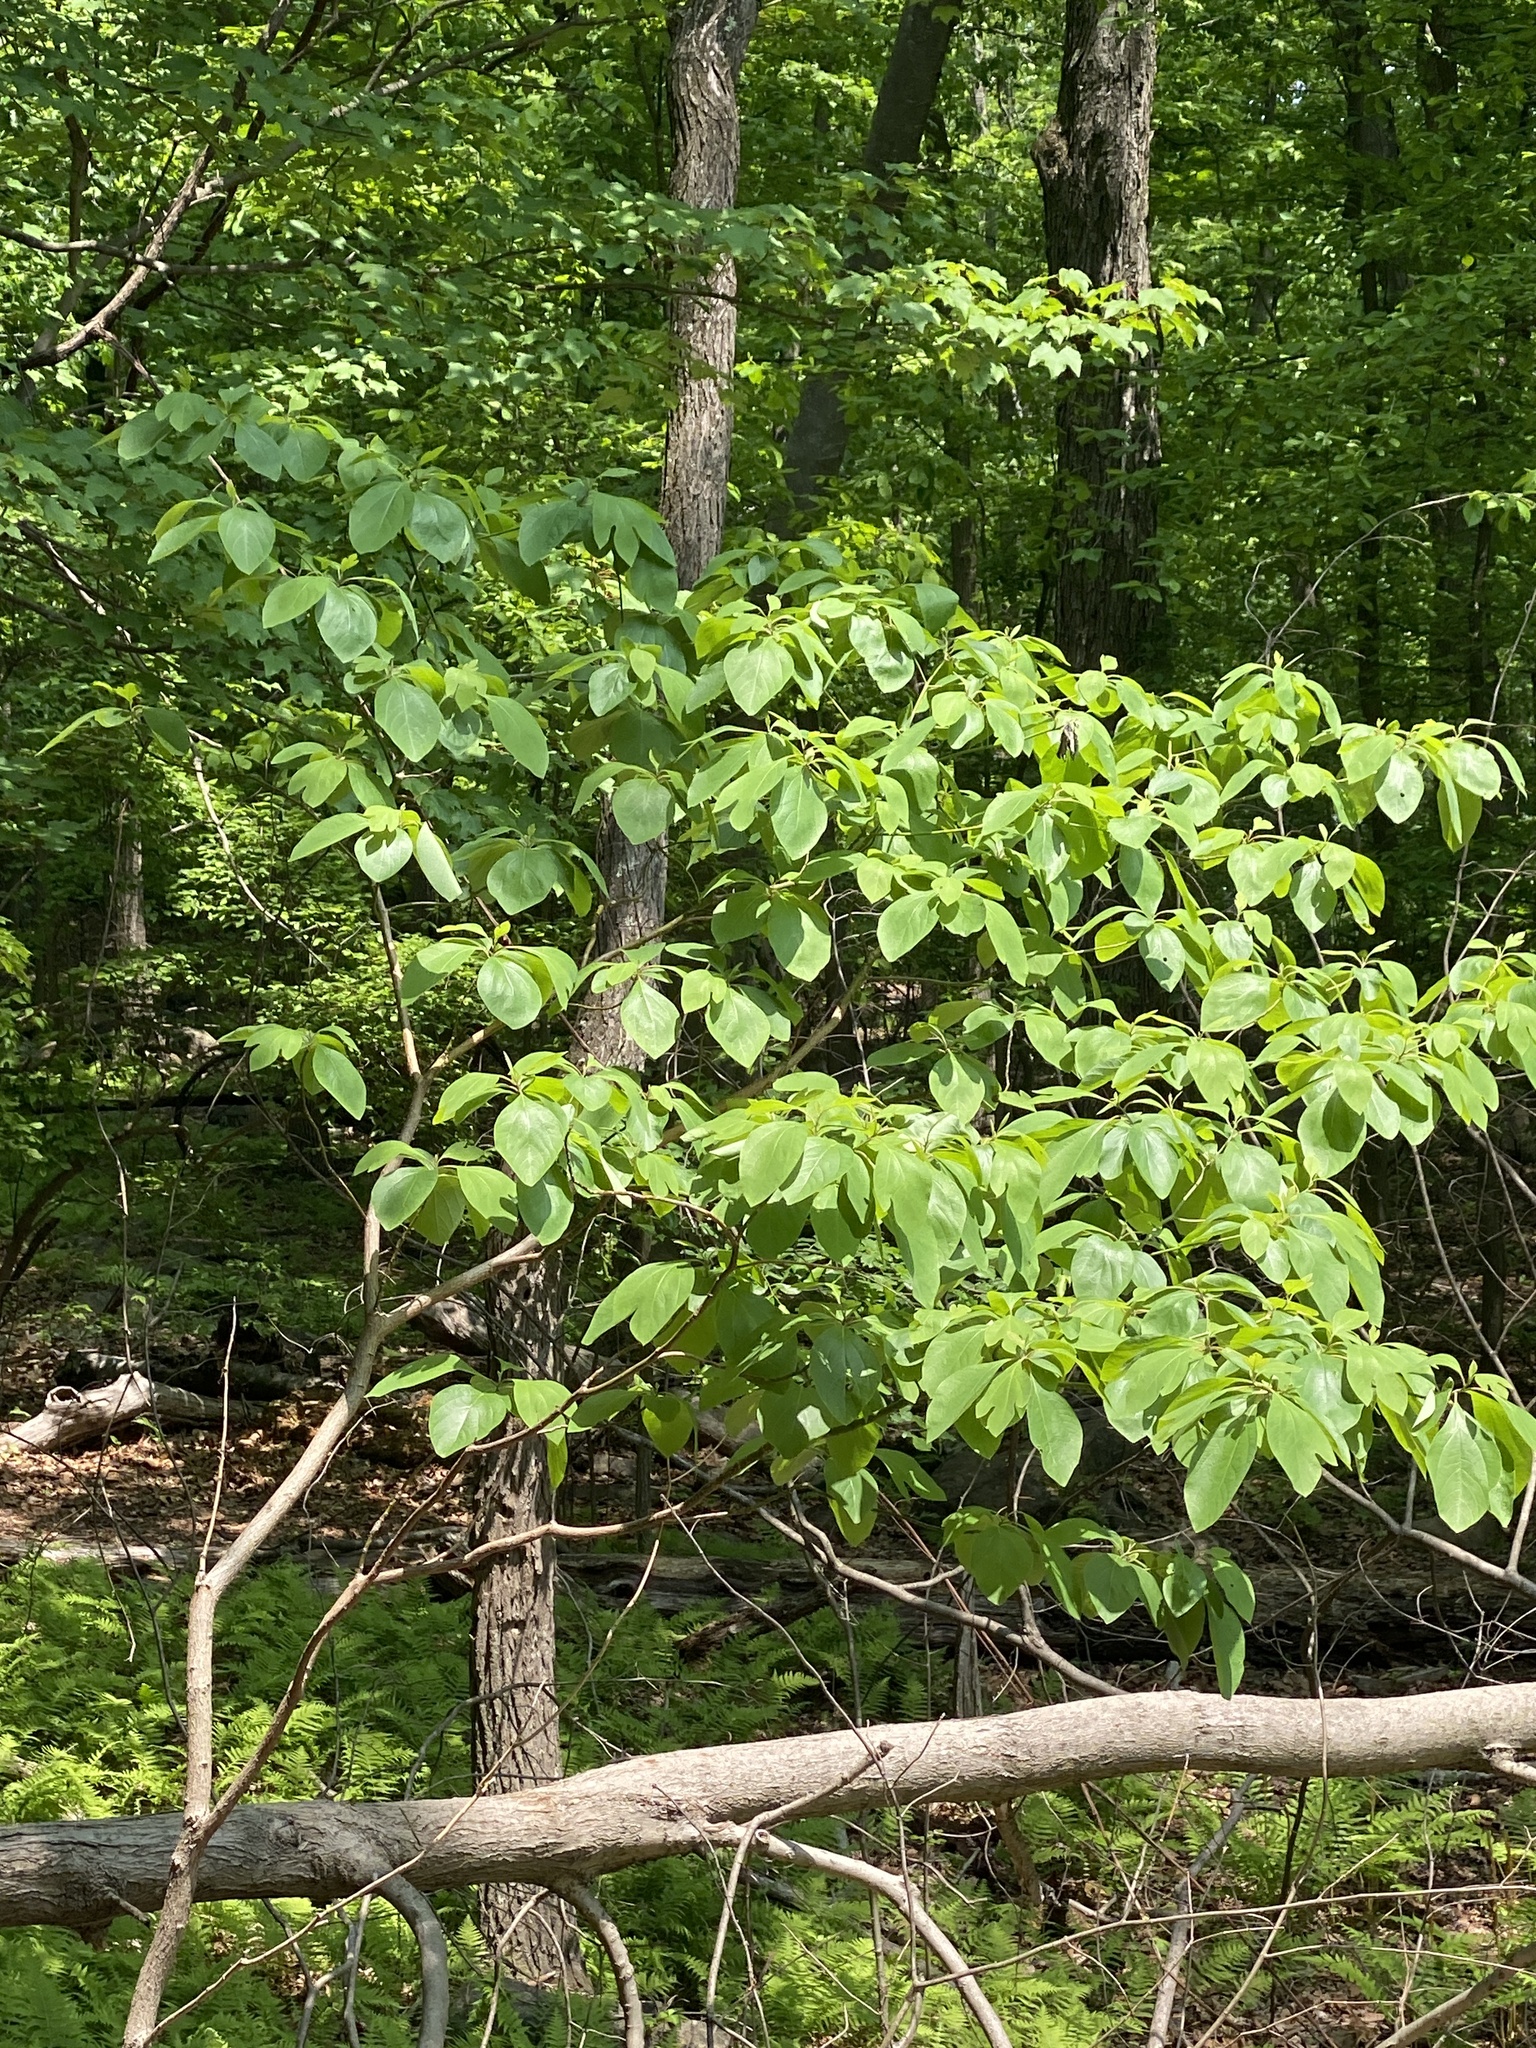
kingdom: Plantae
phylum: Tracheophyta
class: Magnoliopsida
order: Laurales
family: Lauraceae
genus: Sassafras
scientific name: Sassafras albidum
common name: Sassafras
